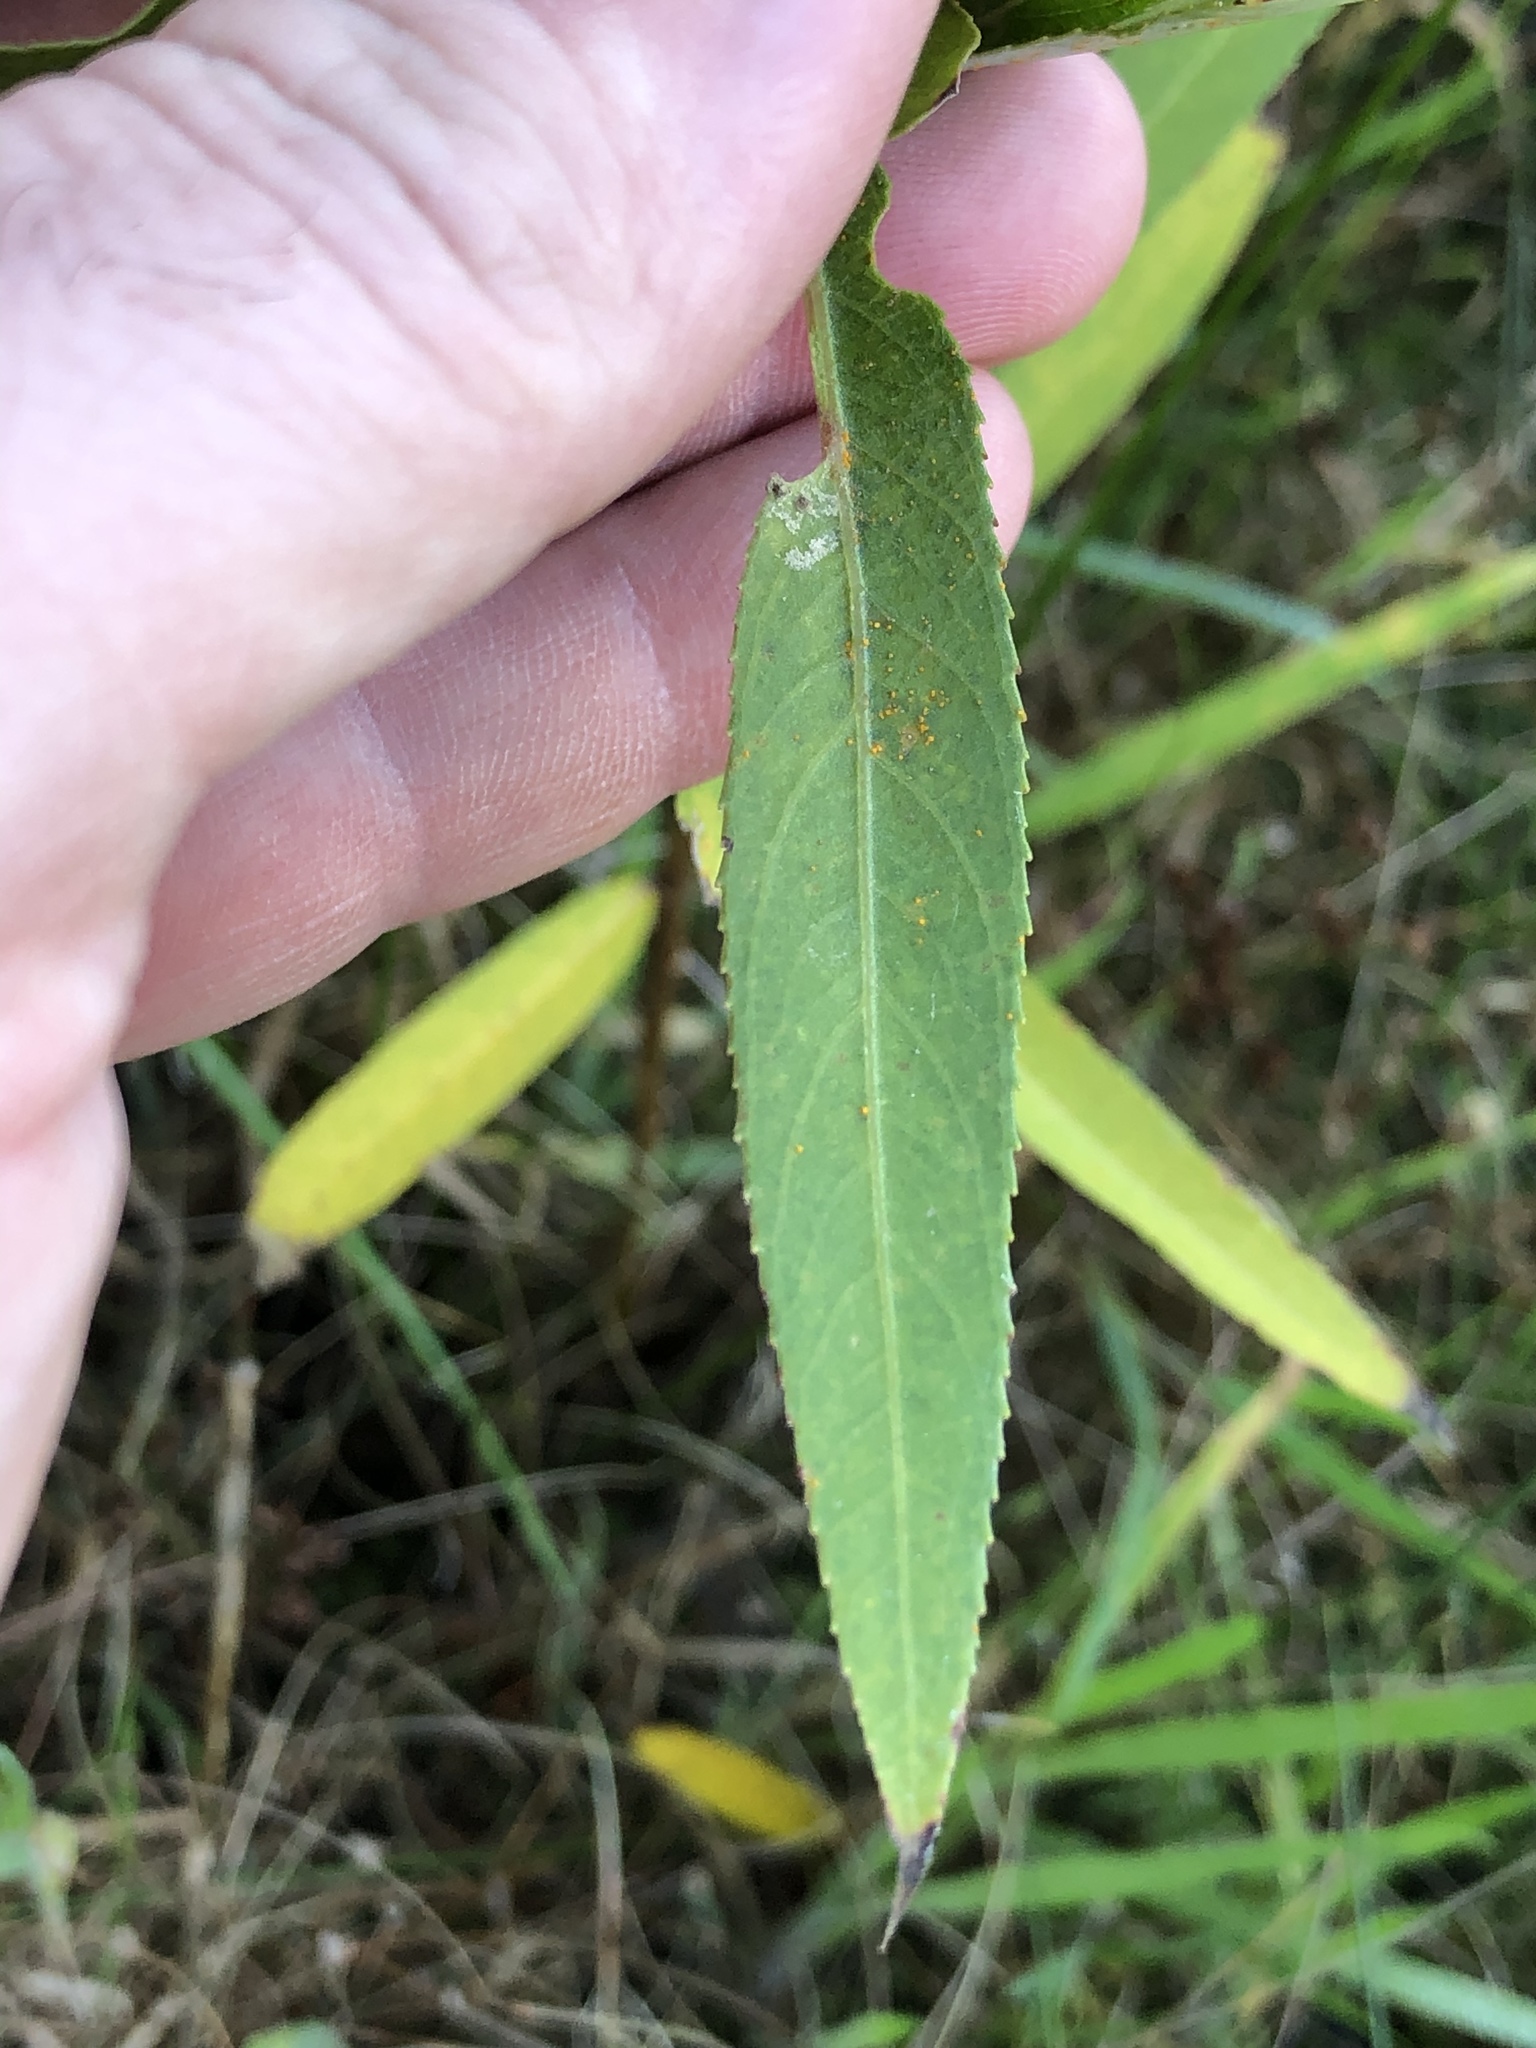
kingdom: Plantae
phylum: Tracheophyta
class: Magnoliopsida
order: Malpighiales
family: Salicaceae
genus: Salix
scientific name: Salix fragilis
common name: Crack willow
